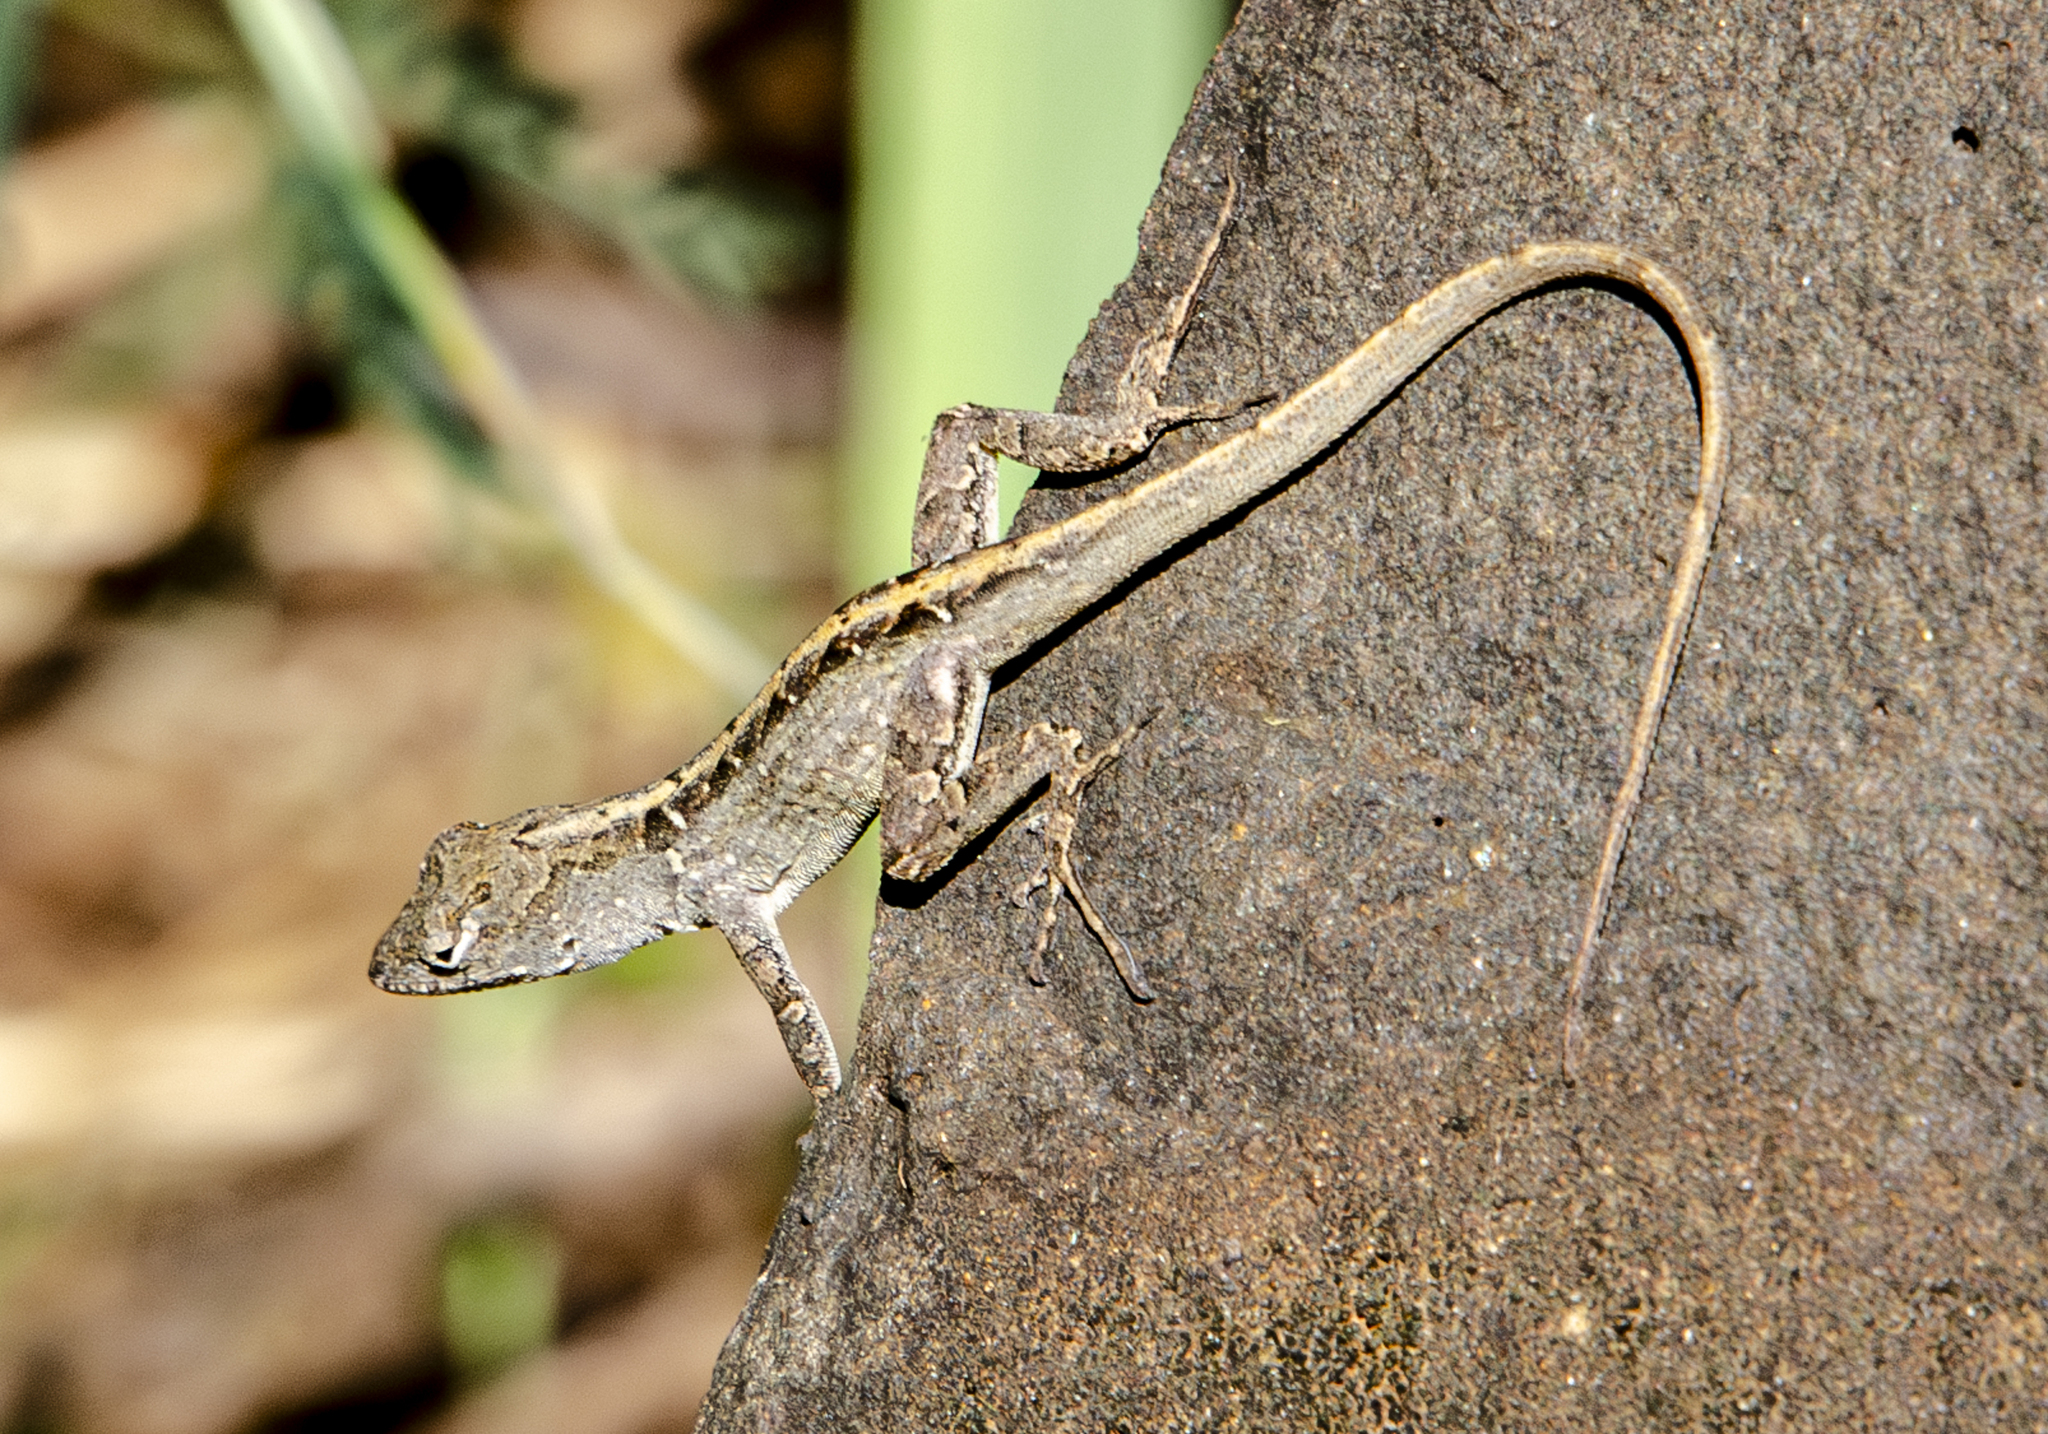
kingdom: Animalia
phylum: Chordata
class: Squamata
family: Dactyloidae
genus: Anolis
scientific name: Anolis sagrei
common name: Brown anole
